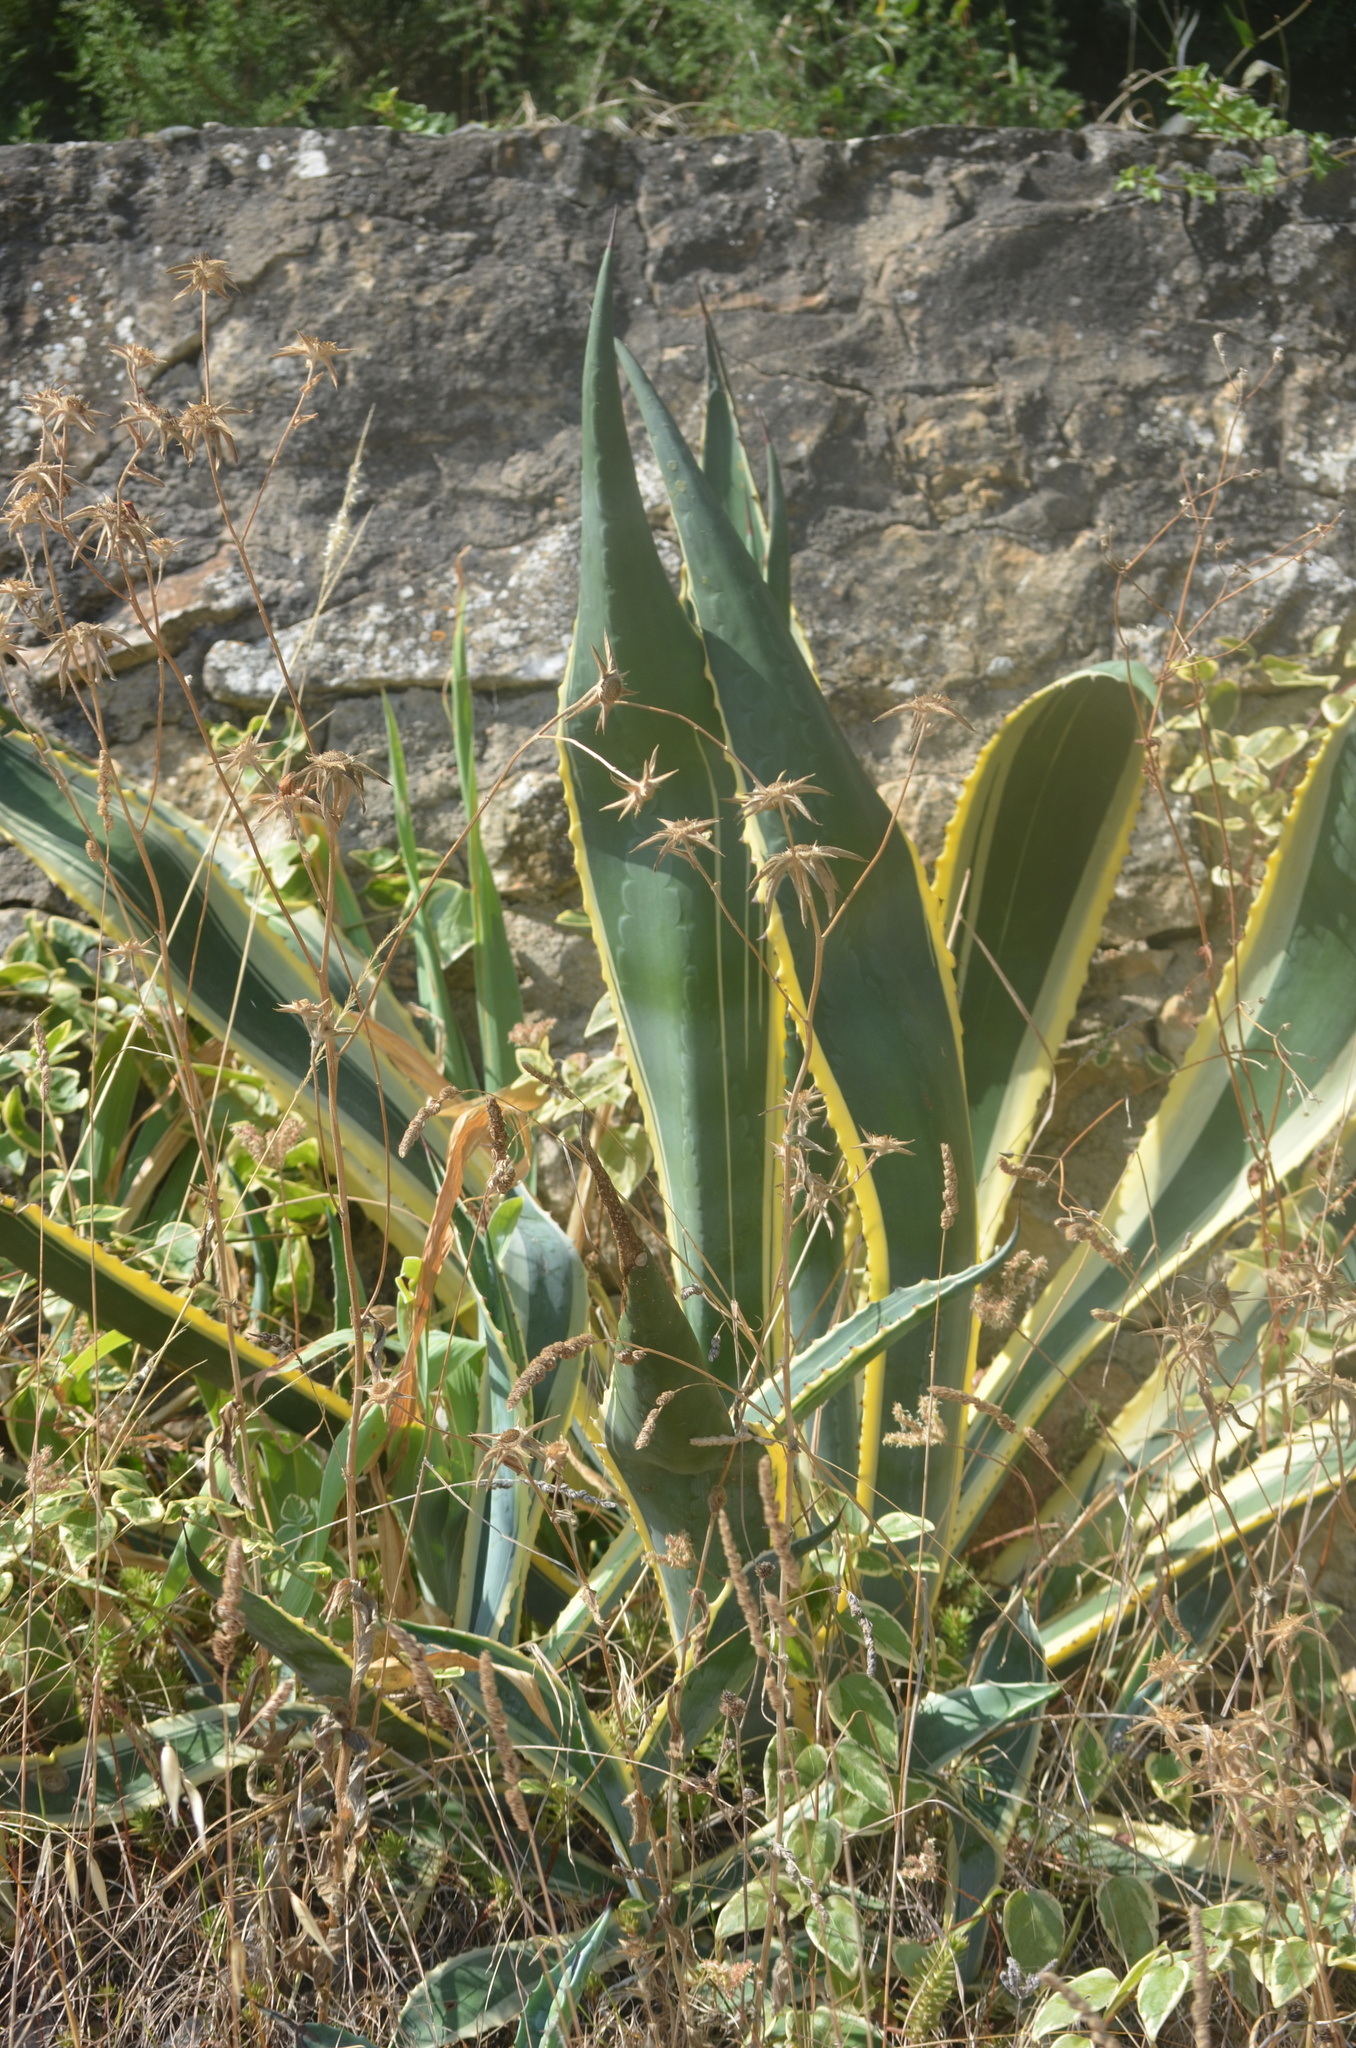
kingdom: Plantae
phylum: Tracheophyta
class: Liliopsida
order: Asparagales
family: Asparagaceae
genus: Agave
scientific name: Agave americana
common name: Centuryplant
